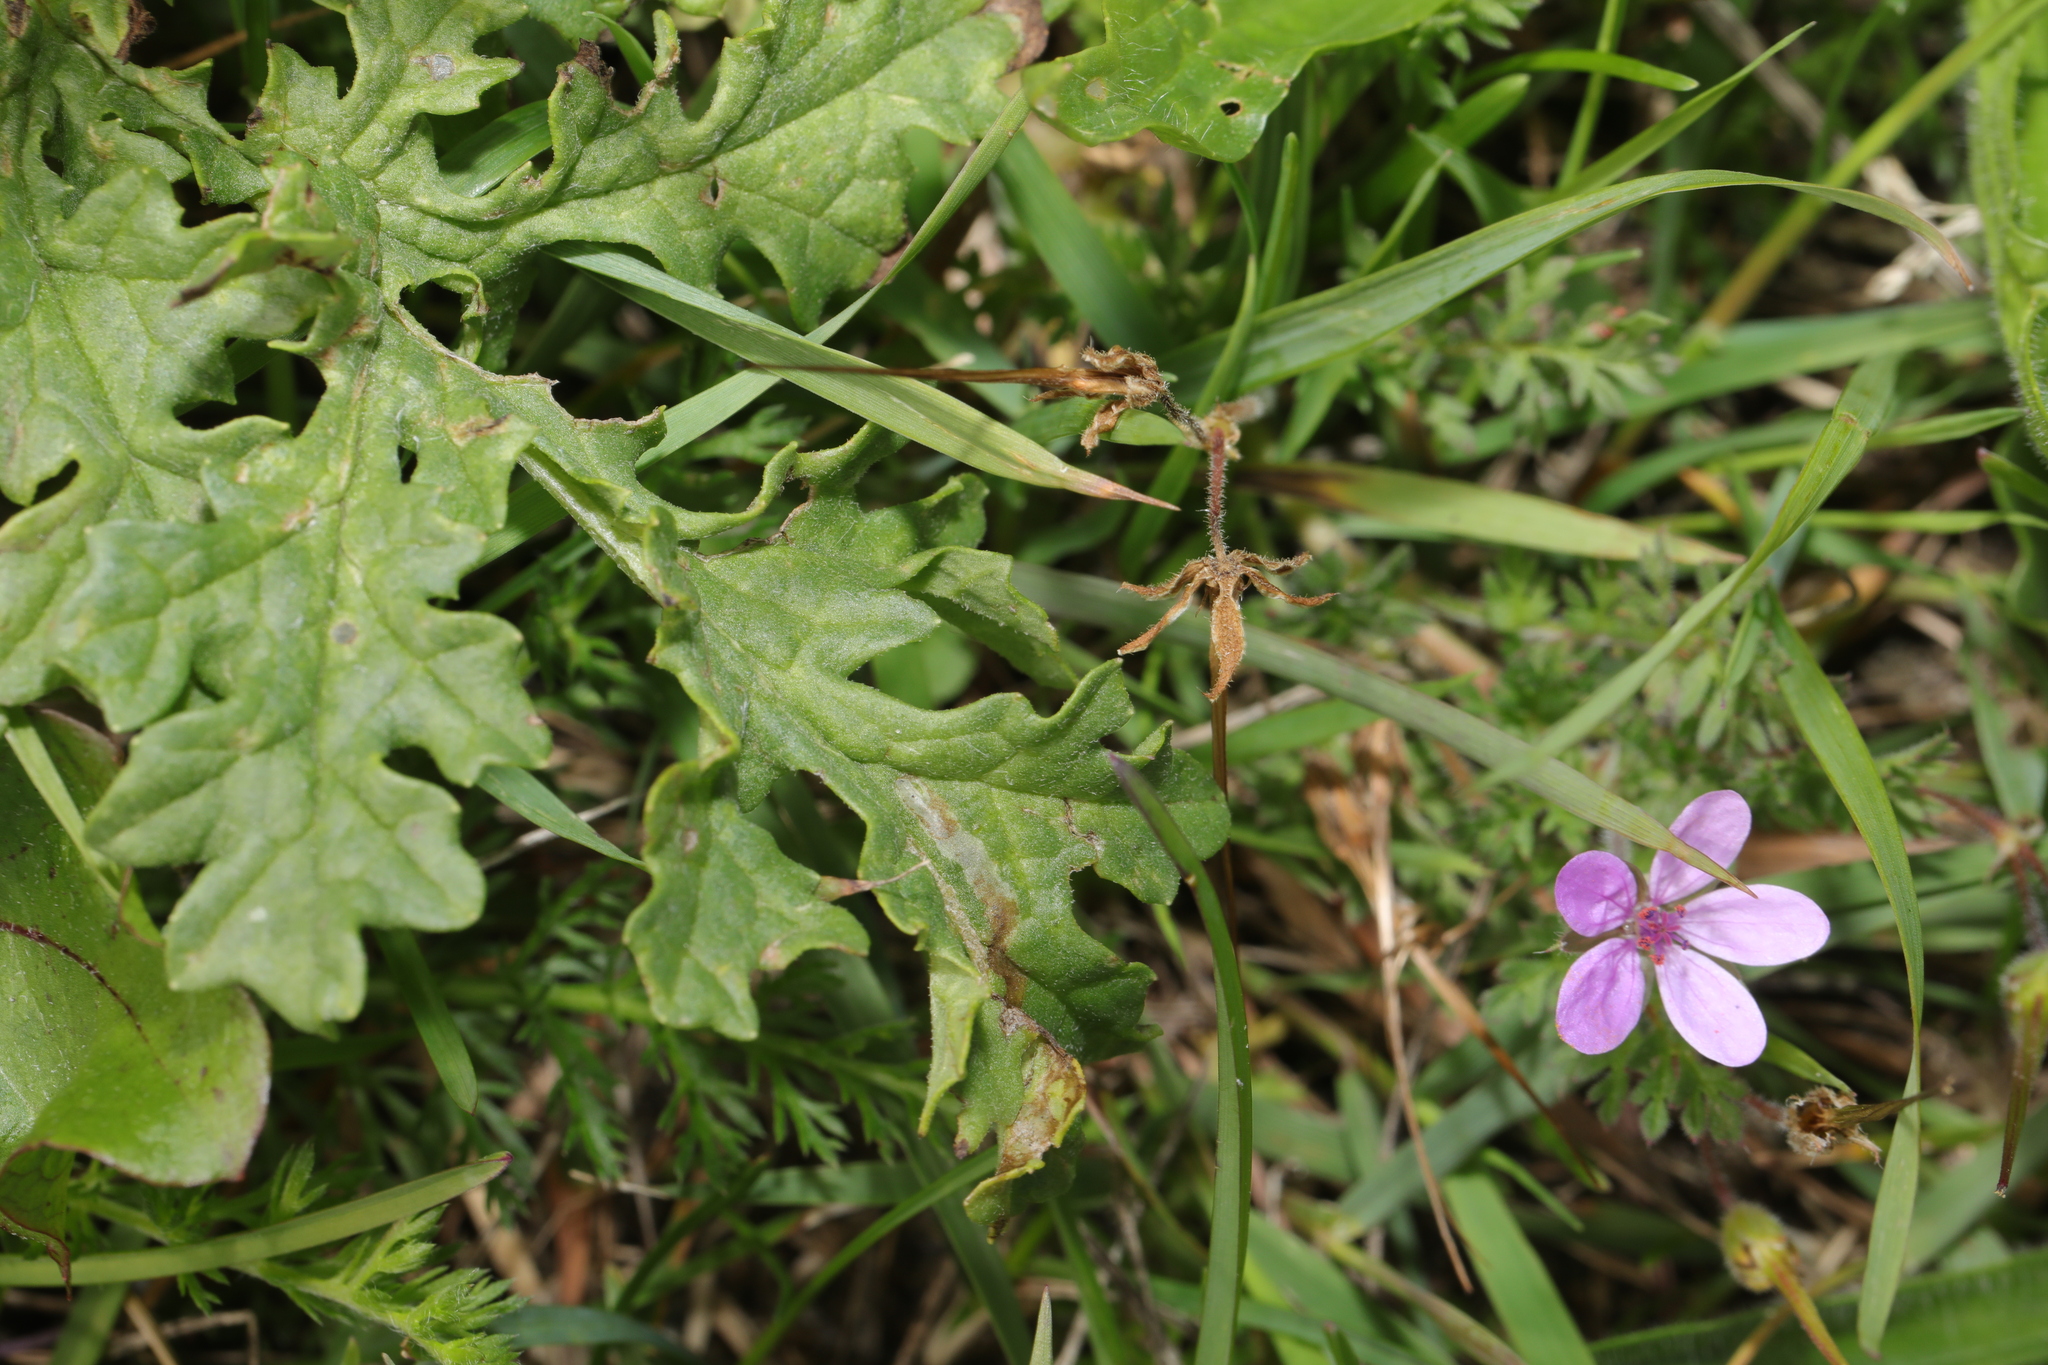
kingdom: Plantae
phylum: Tracheophyta
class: Magnoliopsida
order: Geraniales
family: Geraniaceae
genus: Erodium
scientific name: Erodium cicutarium
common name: Common stork's-bill
